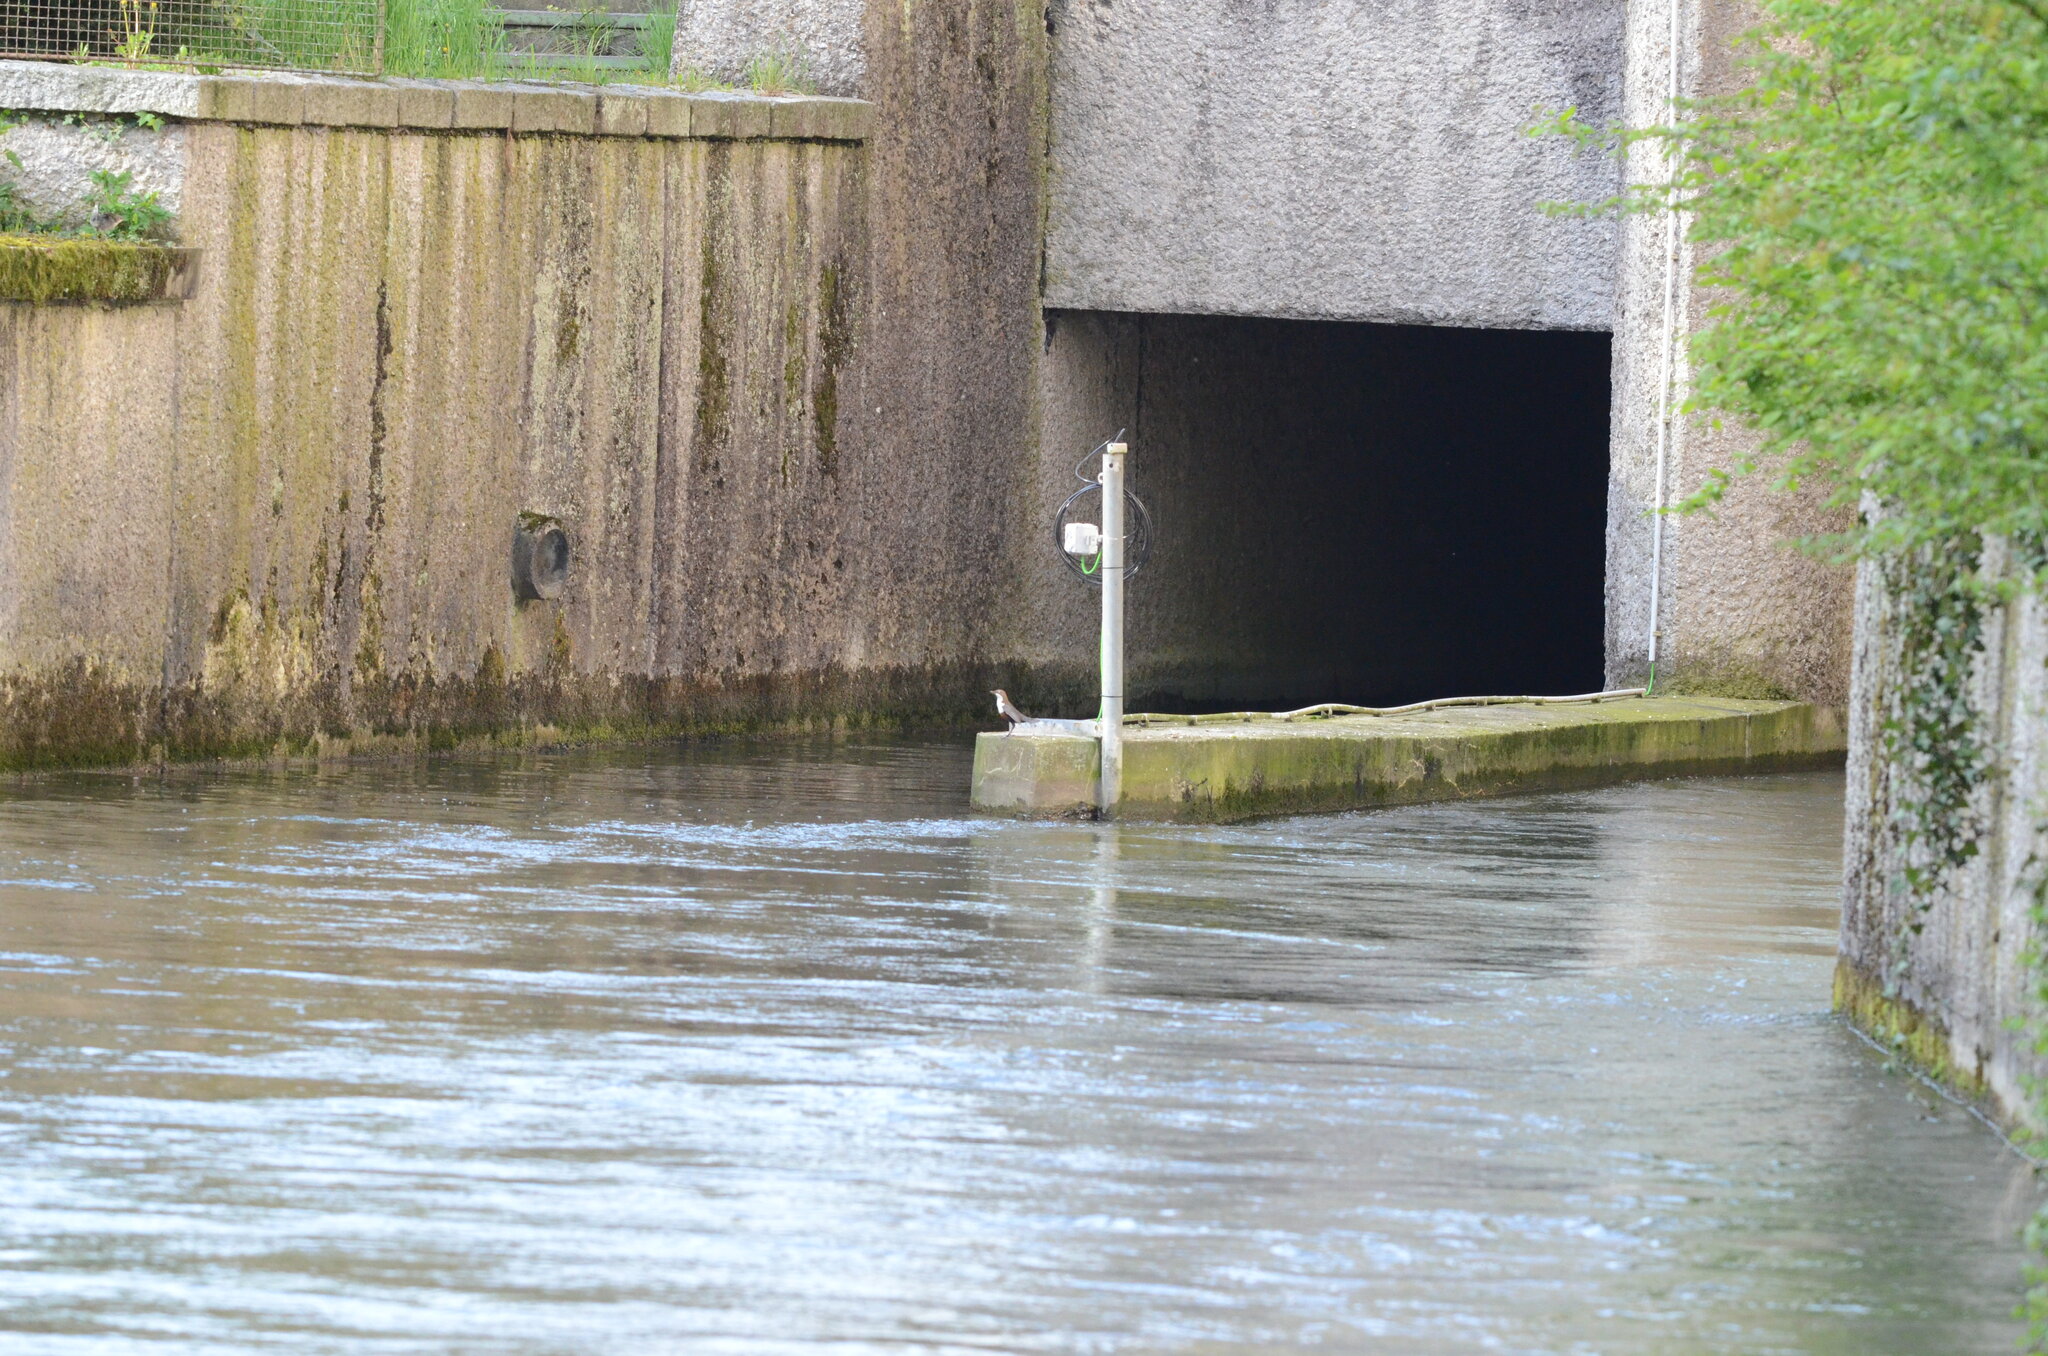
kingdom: Animalia
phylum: Chordata
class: Aves
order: Passeriformes
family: Cinclidae
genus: Cinclus
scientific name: Cinclus cinclus
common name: White-throated dipper
